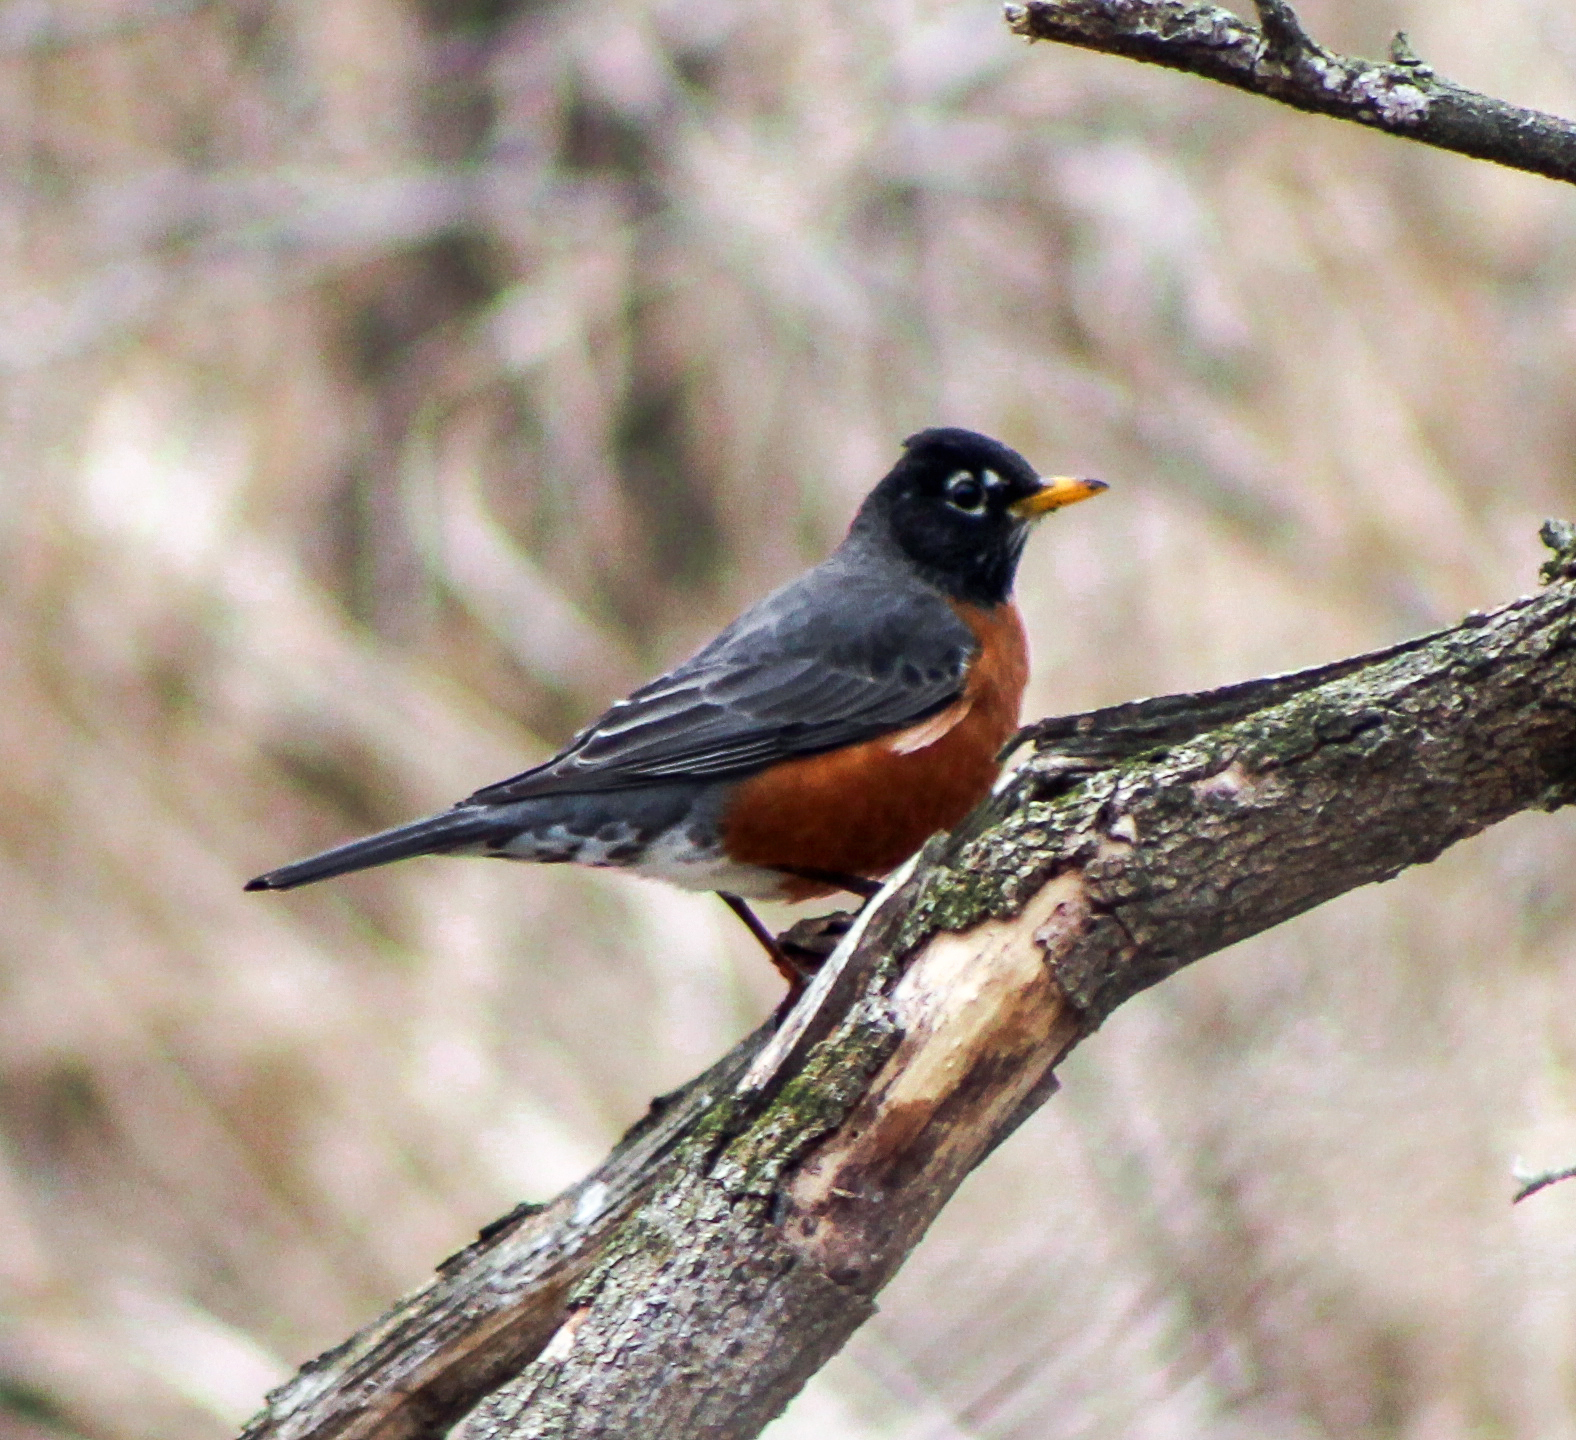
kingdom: Animalia
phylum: Chordata
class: Aves
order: Passeriformes
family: Turdidae
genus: Turdus
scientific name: Turdus migratorius
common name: American robin
